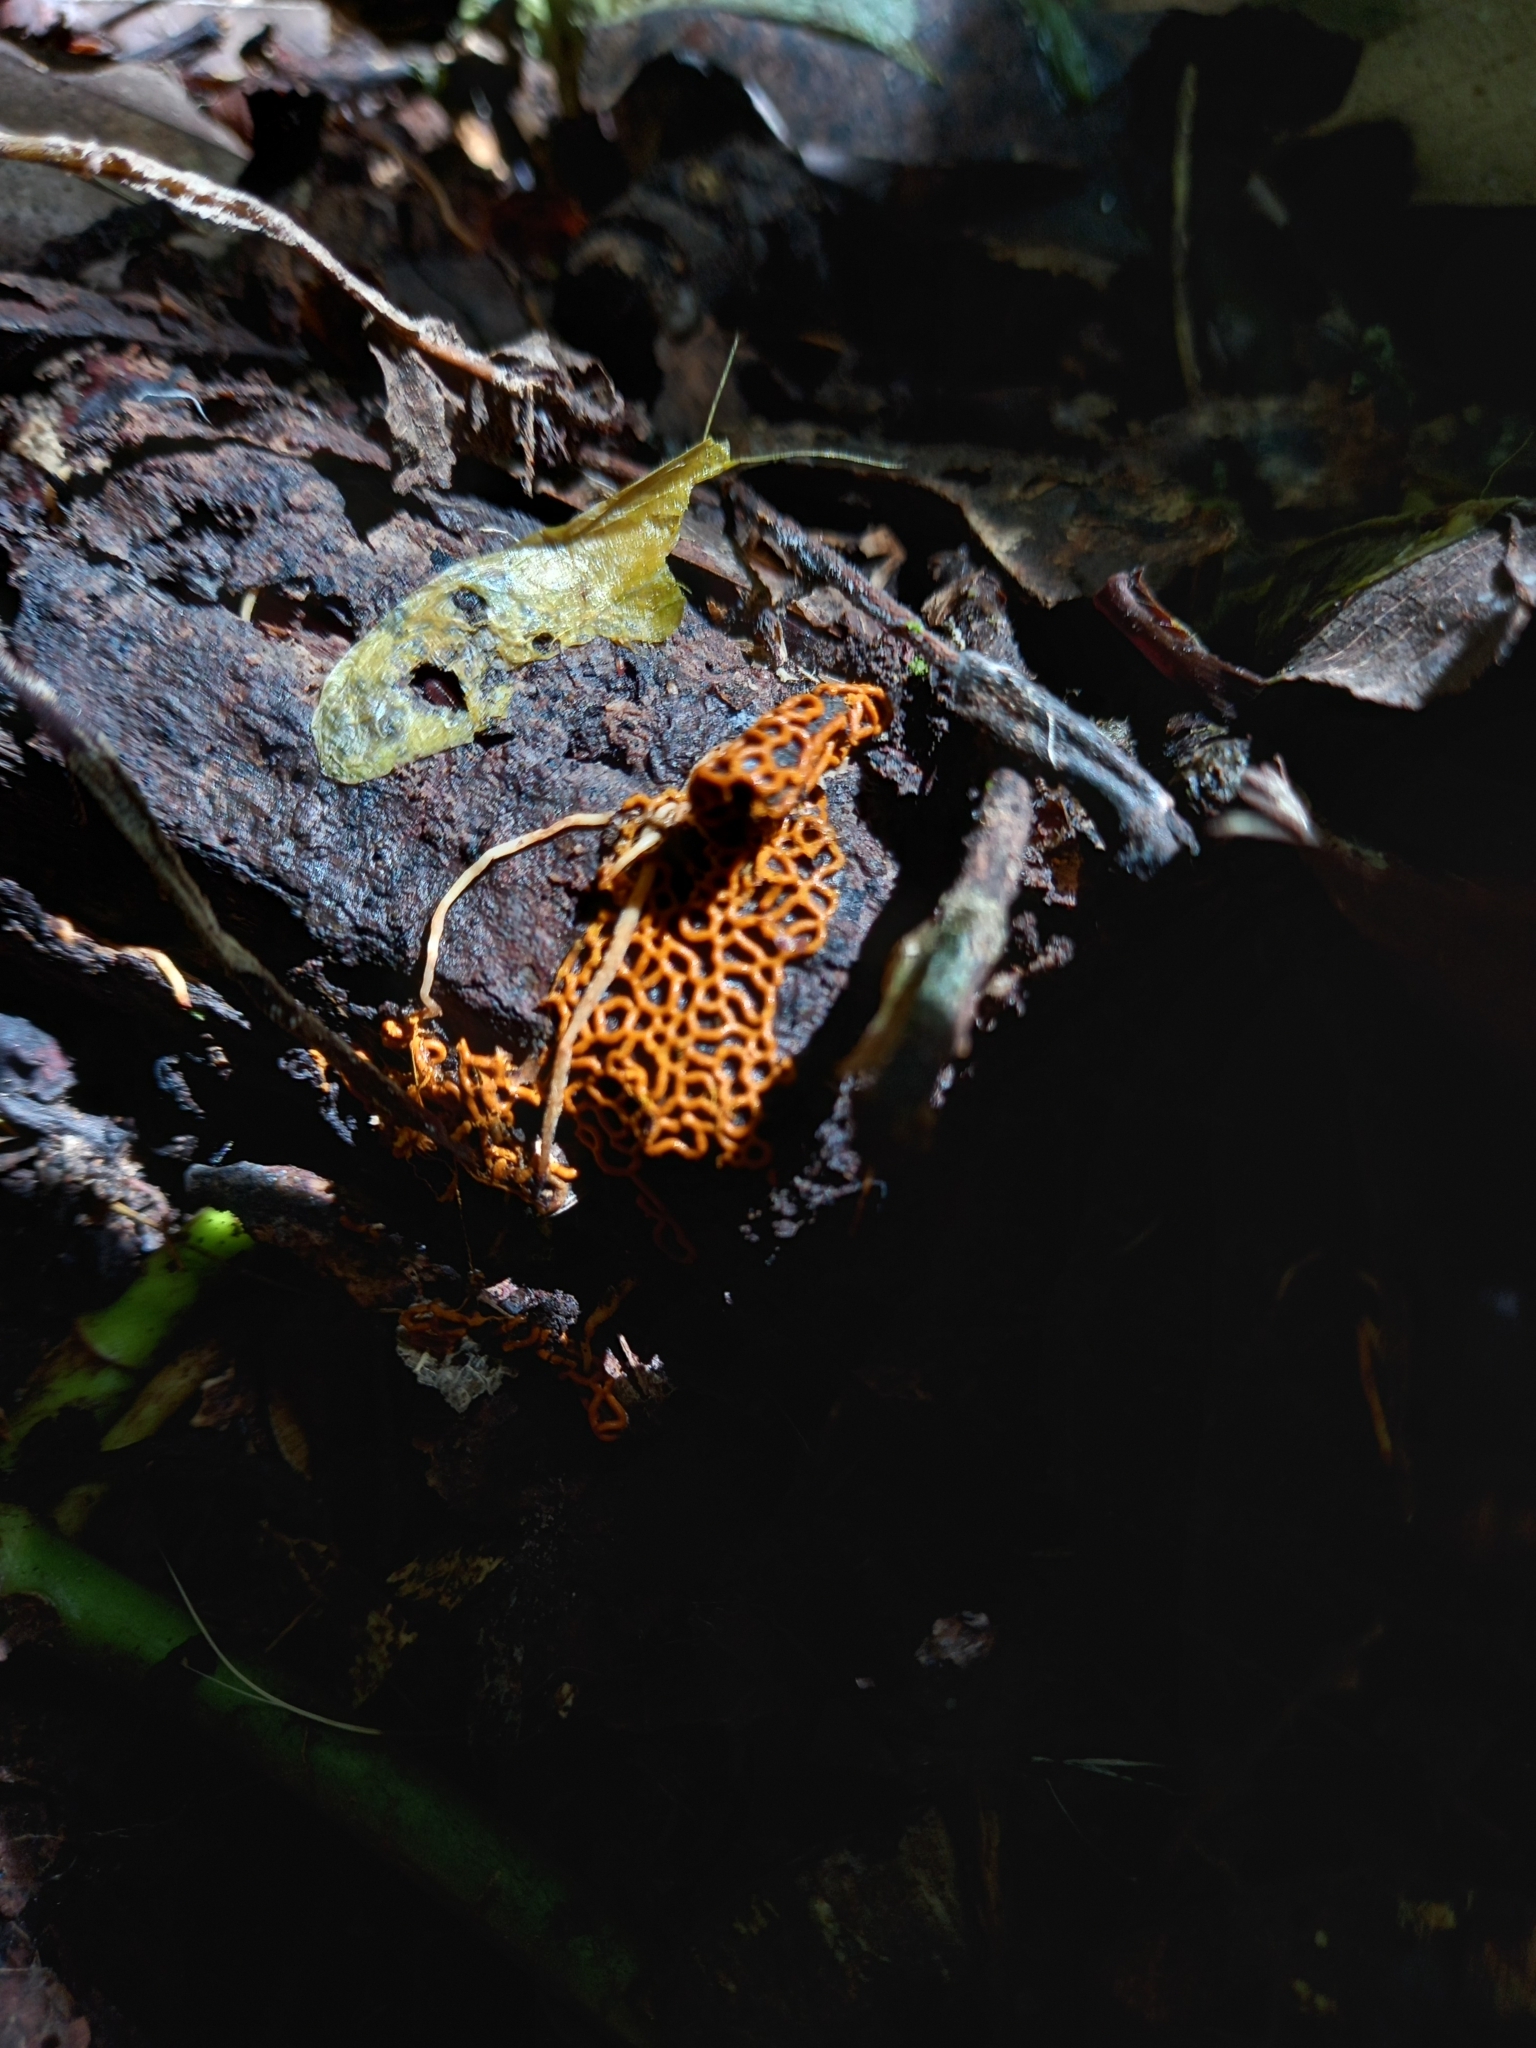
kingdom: Protozoa
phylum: Mycetozoa
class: Myxomycetes
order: Trichiales
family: Arcyriaceae
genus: Hemitrichia
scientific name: Hemitrichia serpula
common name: Pretzel slime mold
